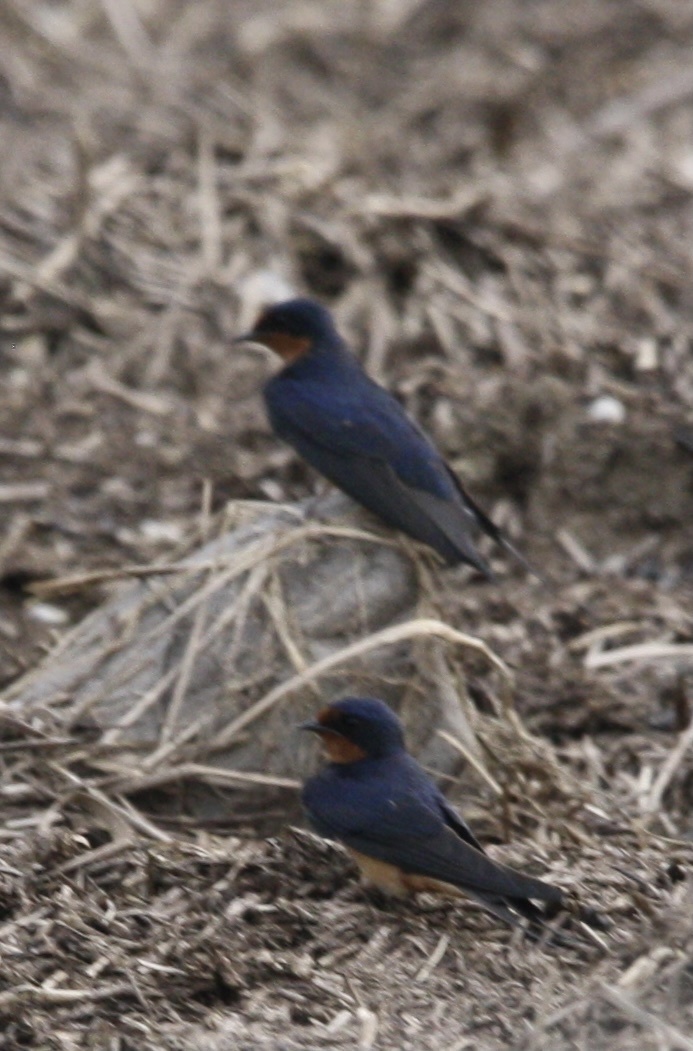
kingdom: Animalia
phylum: Chordata
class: Aves
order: Passeriformes
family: Hirundinidae
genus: Hirundo
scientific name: Hirundo rustica
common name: Barn swallow
